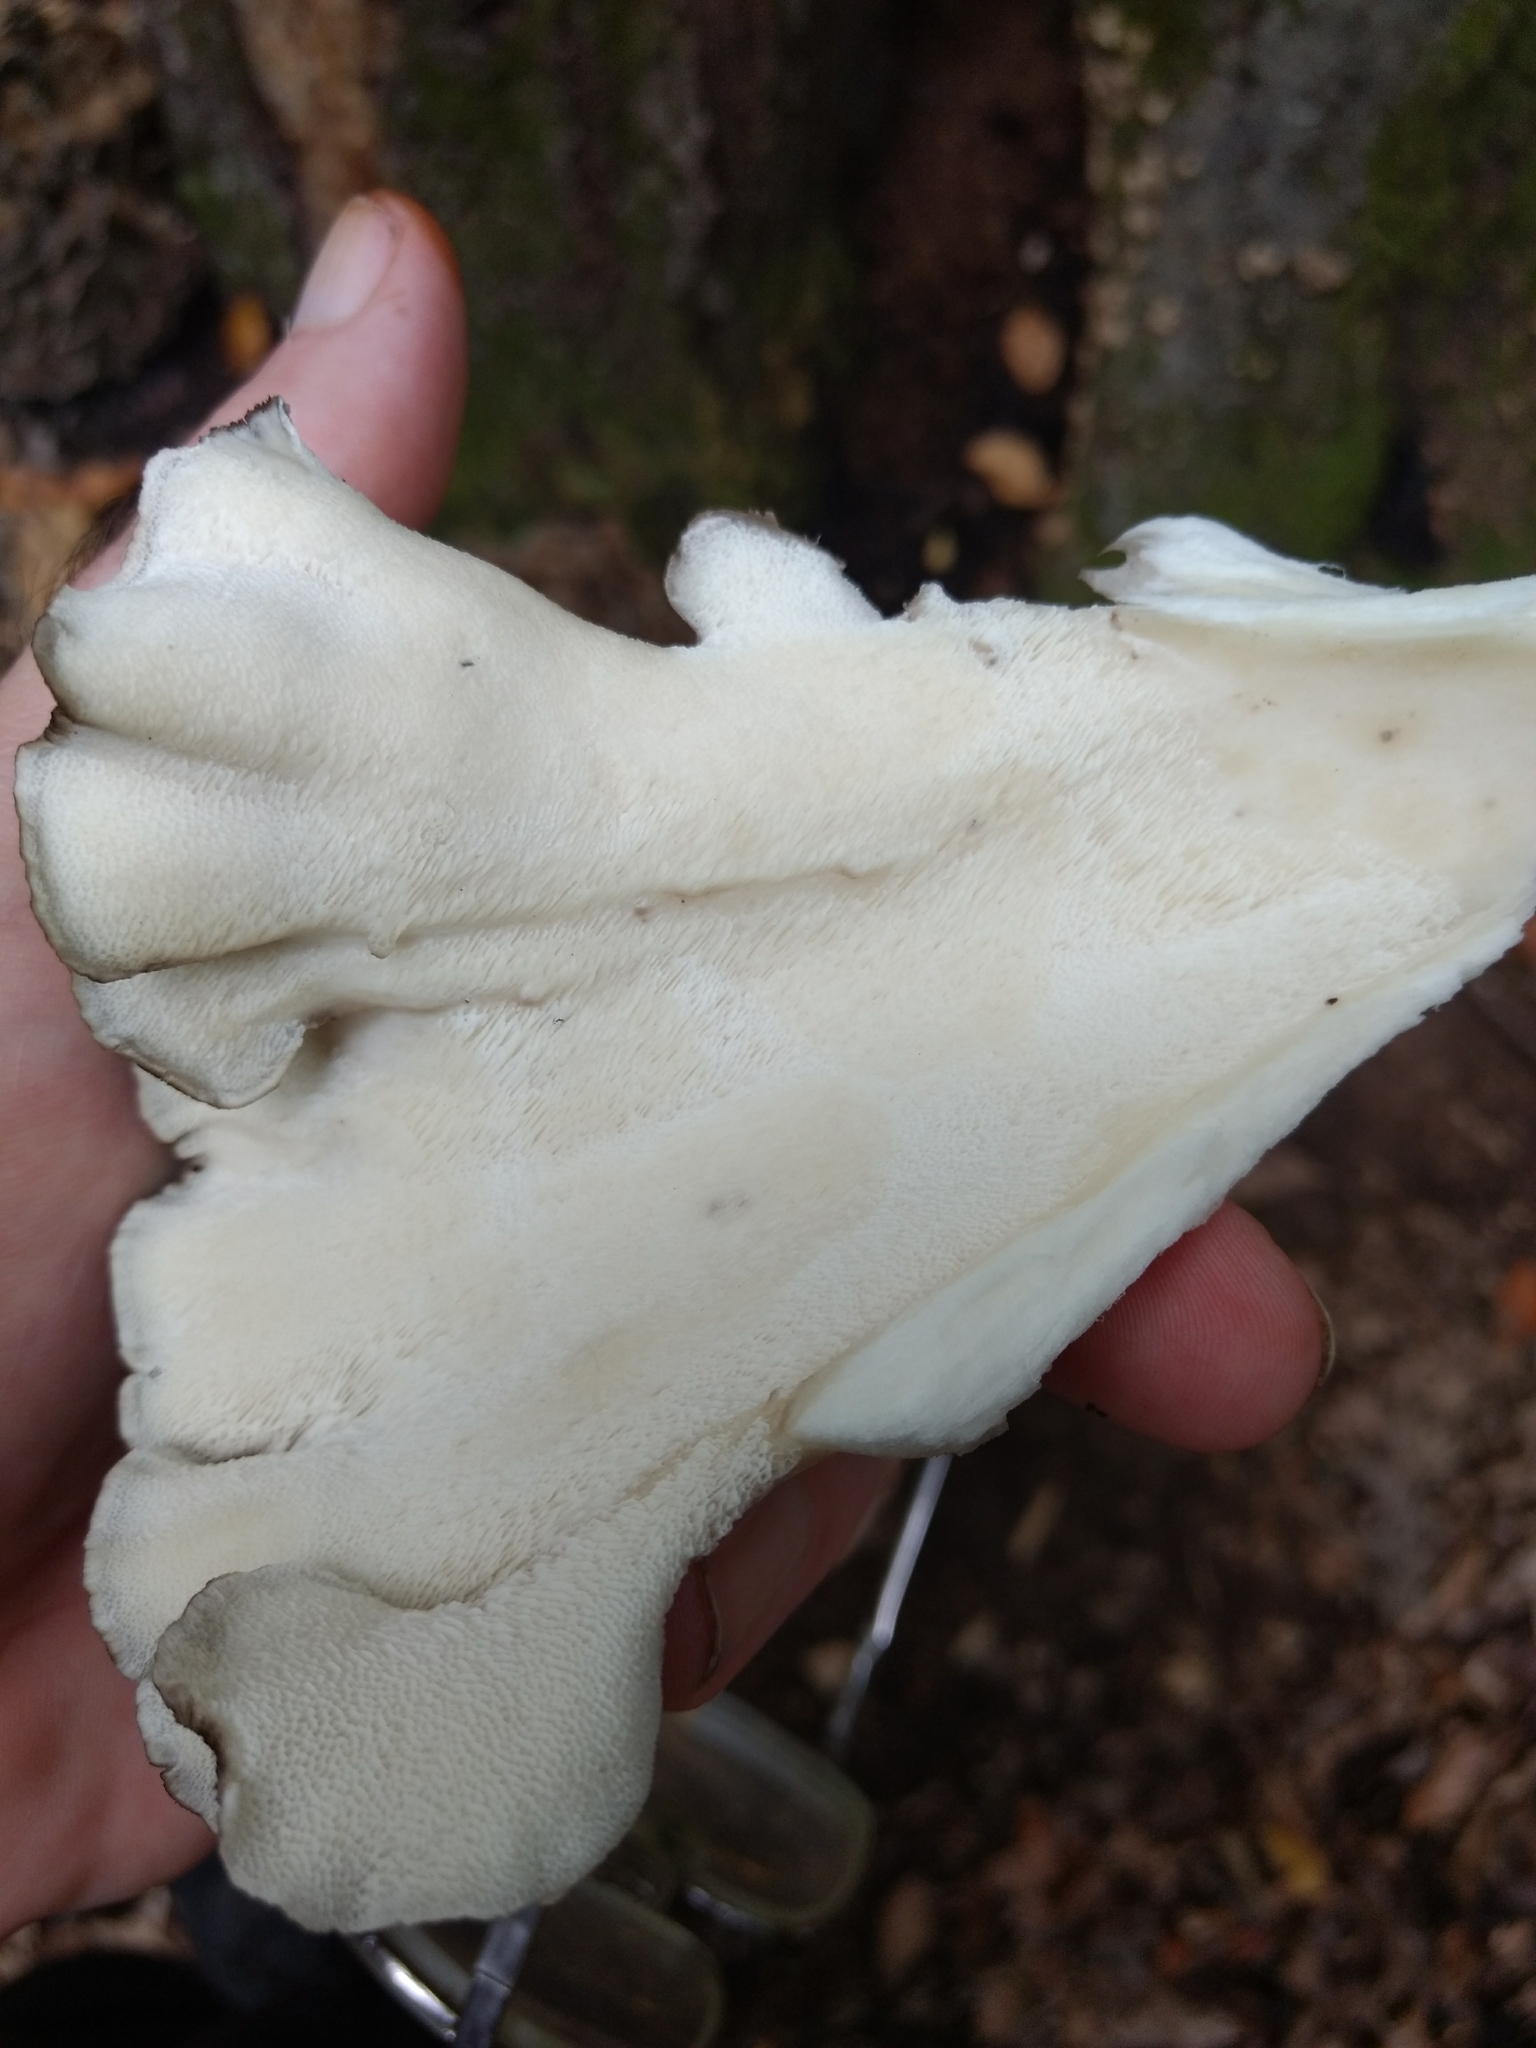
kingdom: Fungi
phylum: Basidiomycota
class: Agaricomycetes
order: Polyporales
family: Grifolaceae
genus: Grifola
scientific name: Grifola frondosa
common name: Hen of the woods
